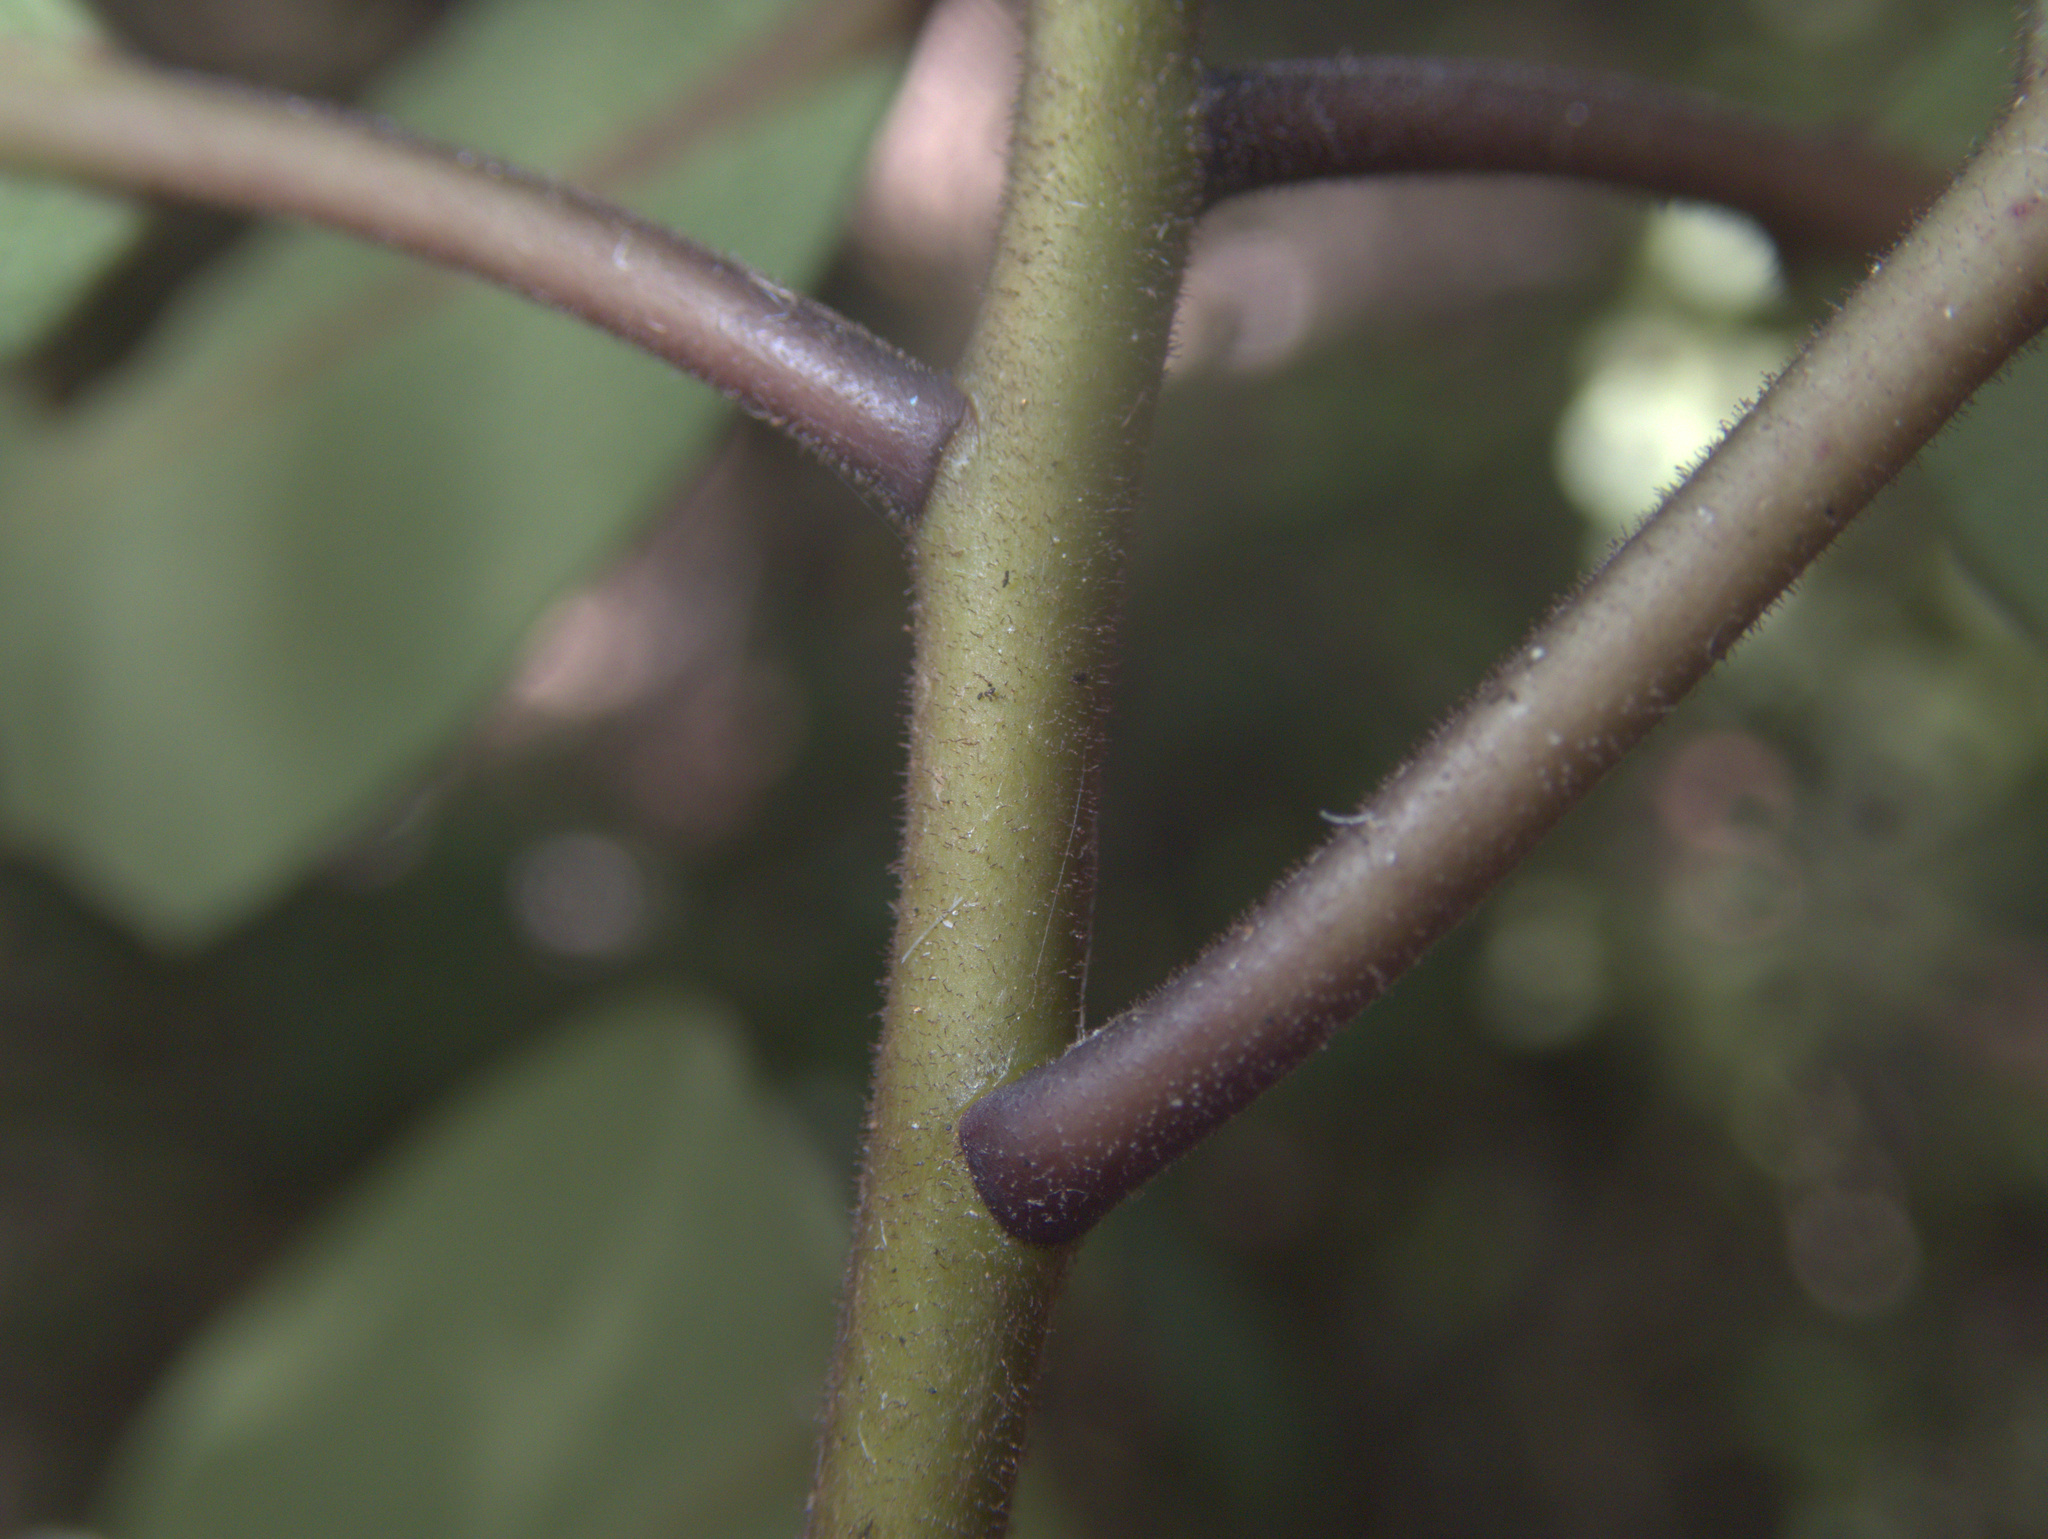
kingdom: Plantae
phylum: Tracheophyta
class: Magnoliopsida
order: Apiales
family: Pittosporaceae
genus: Pittosporum
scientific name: Pittosporum umbellatum
